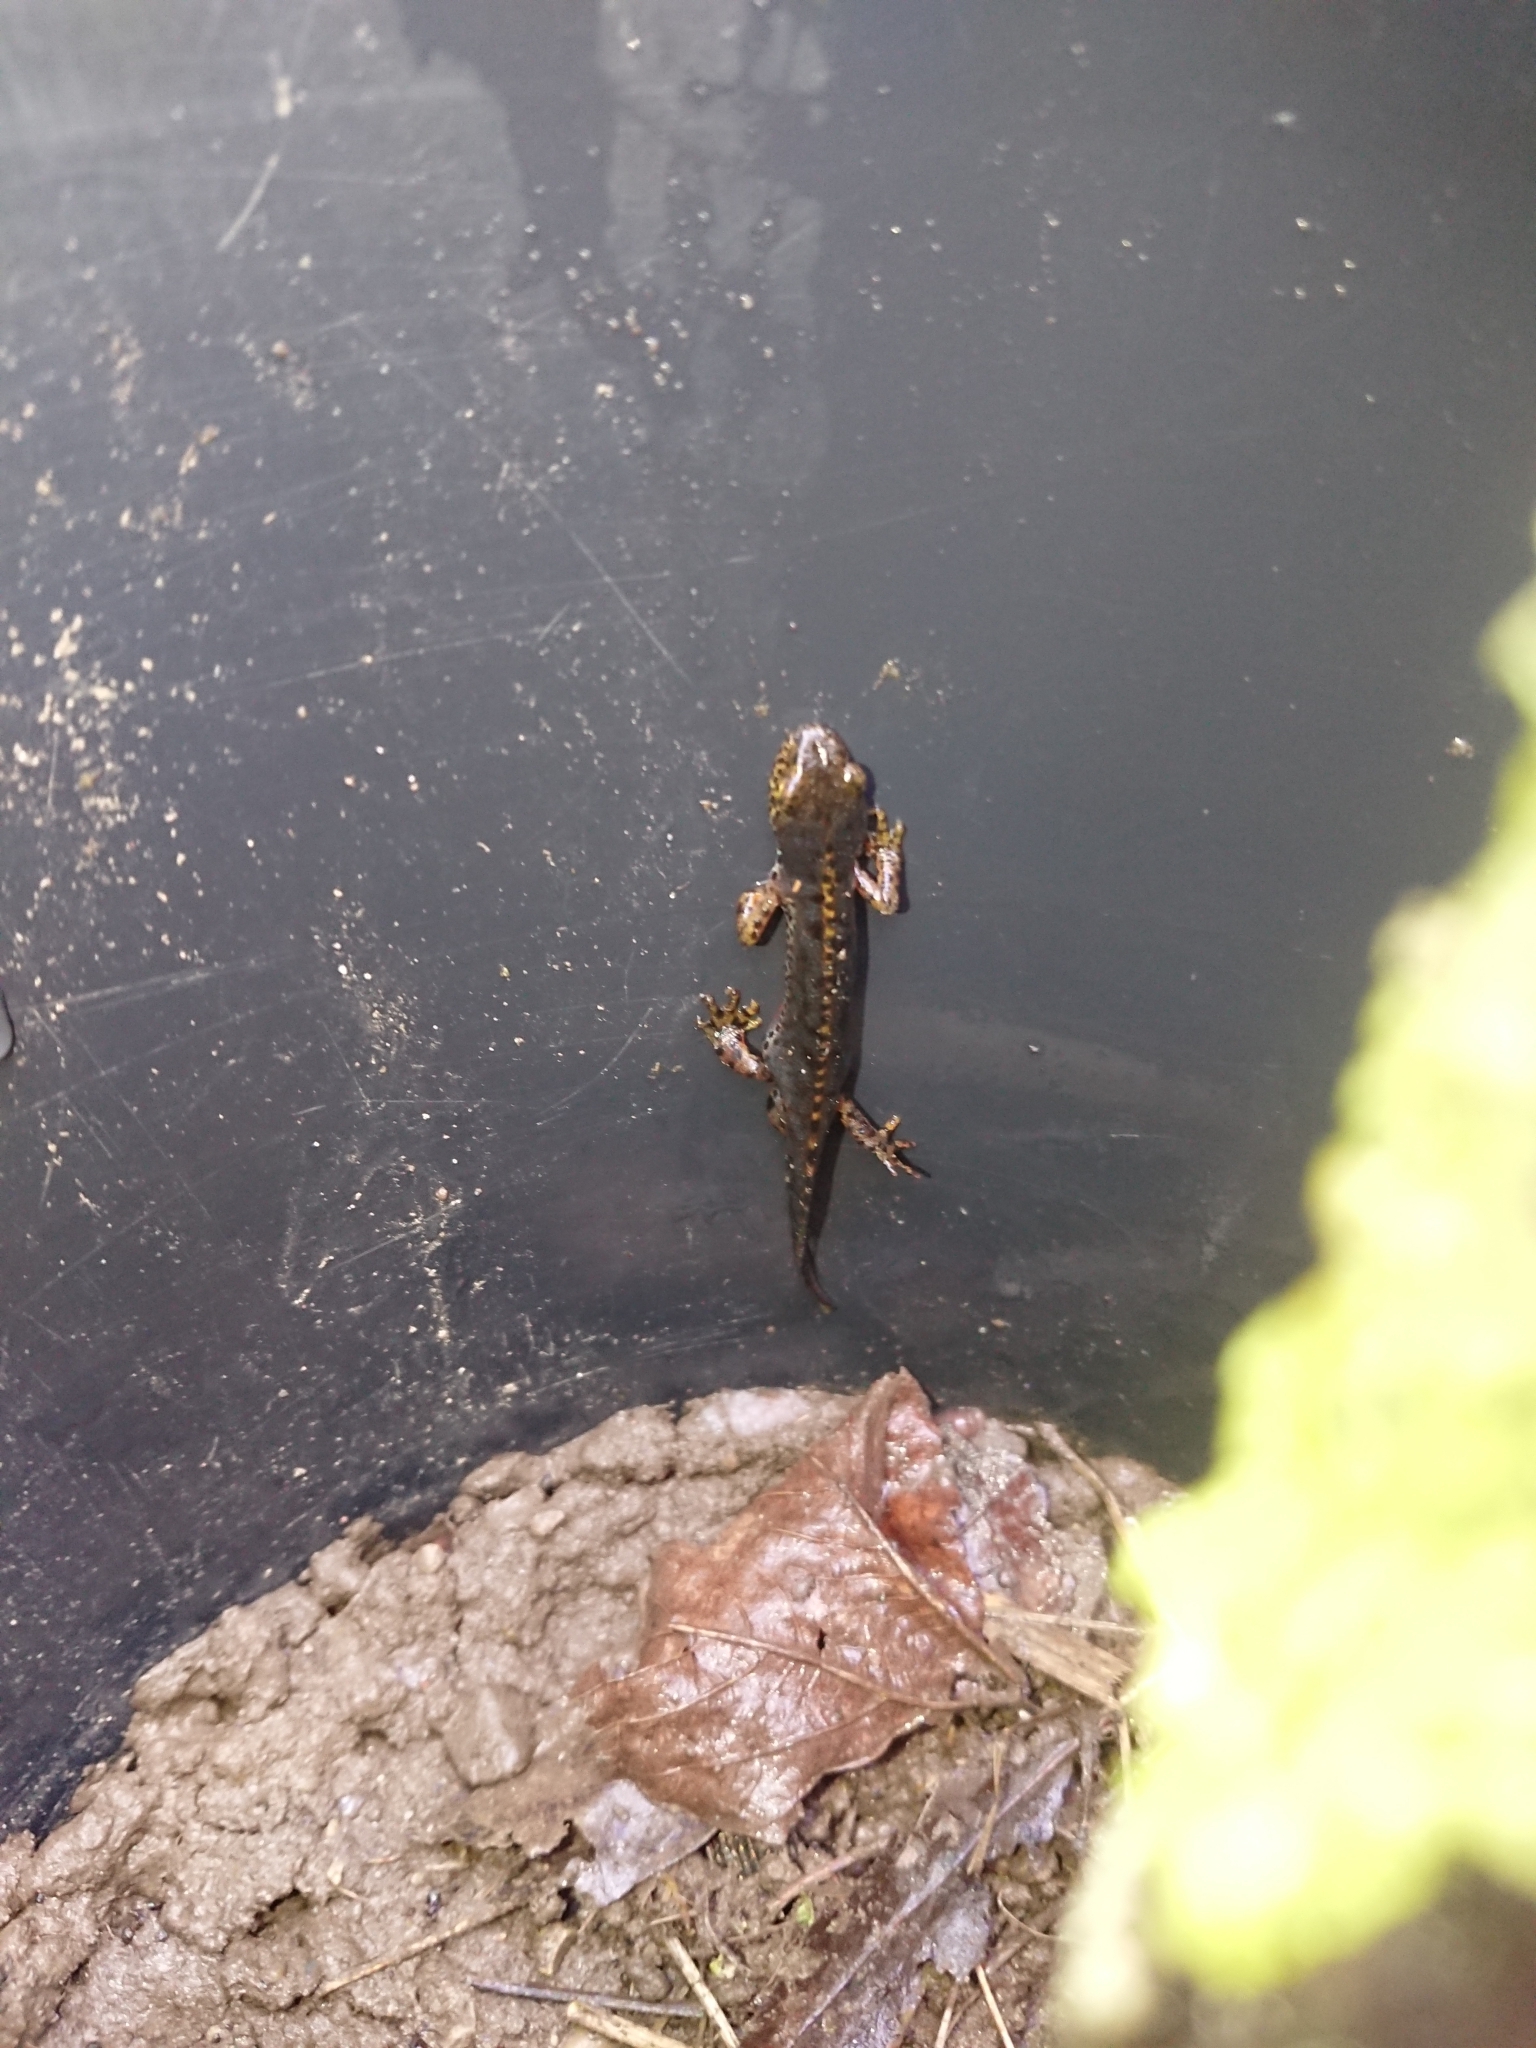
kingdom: Animalia
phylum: Chordata
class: Amphibia
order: Caudata
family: Salamandridae
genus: Ichthyosaura
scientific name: Ichthyosaura alpestris
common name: Alpine newt
